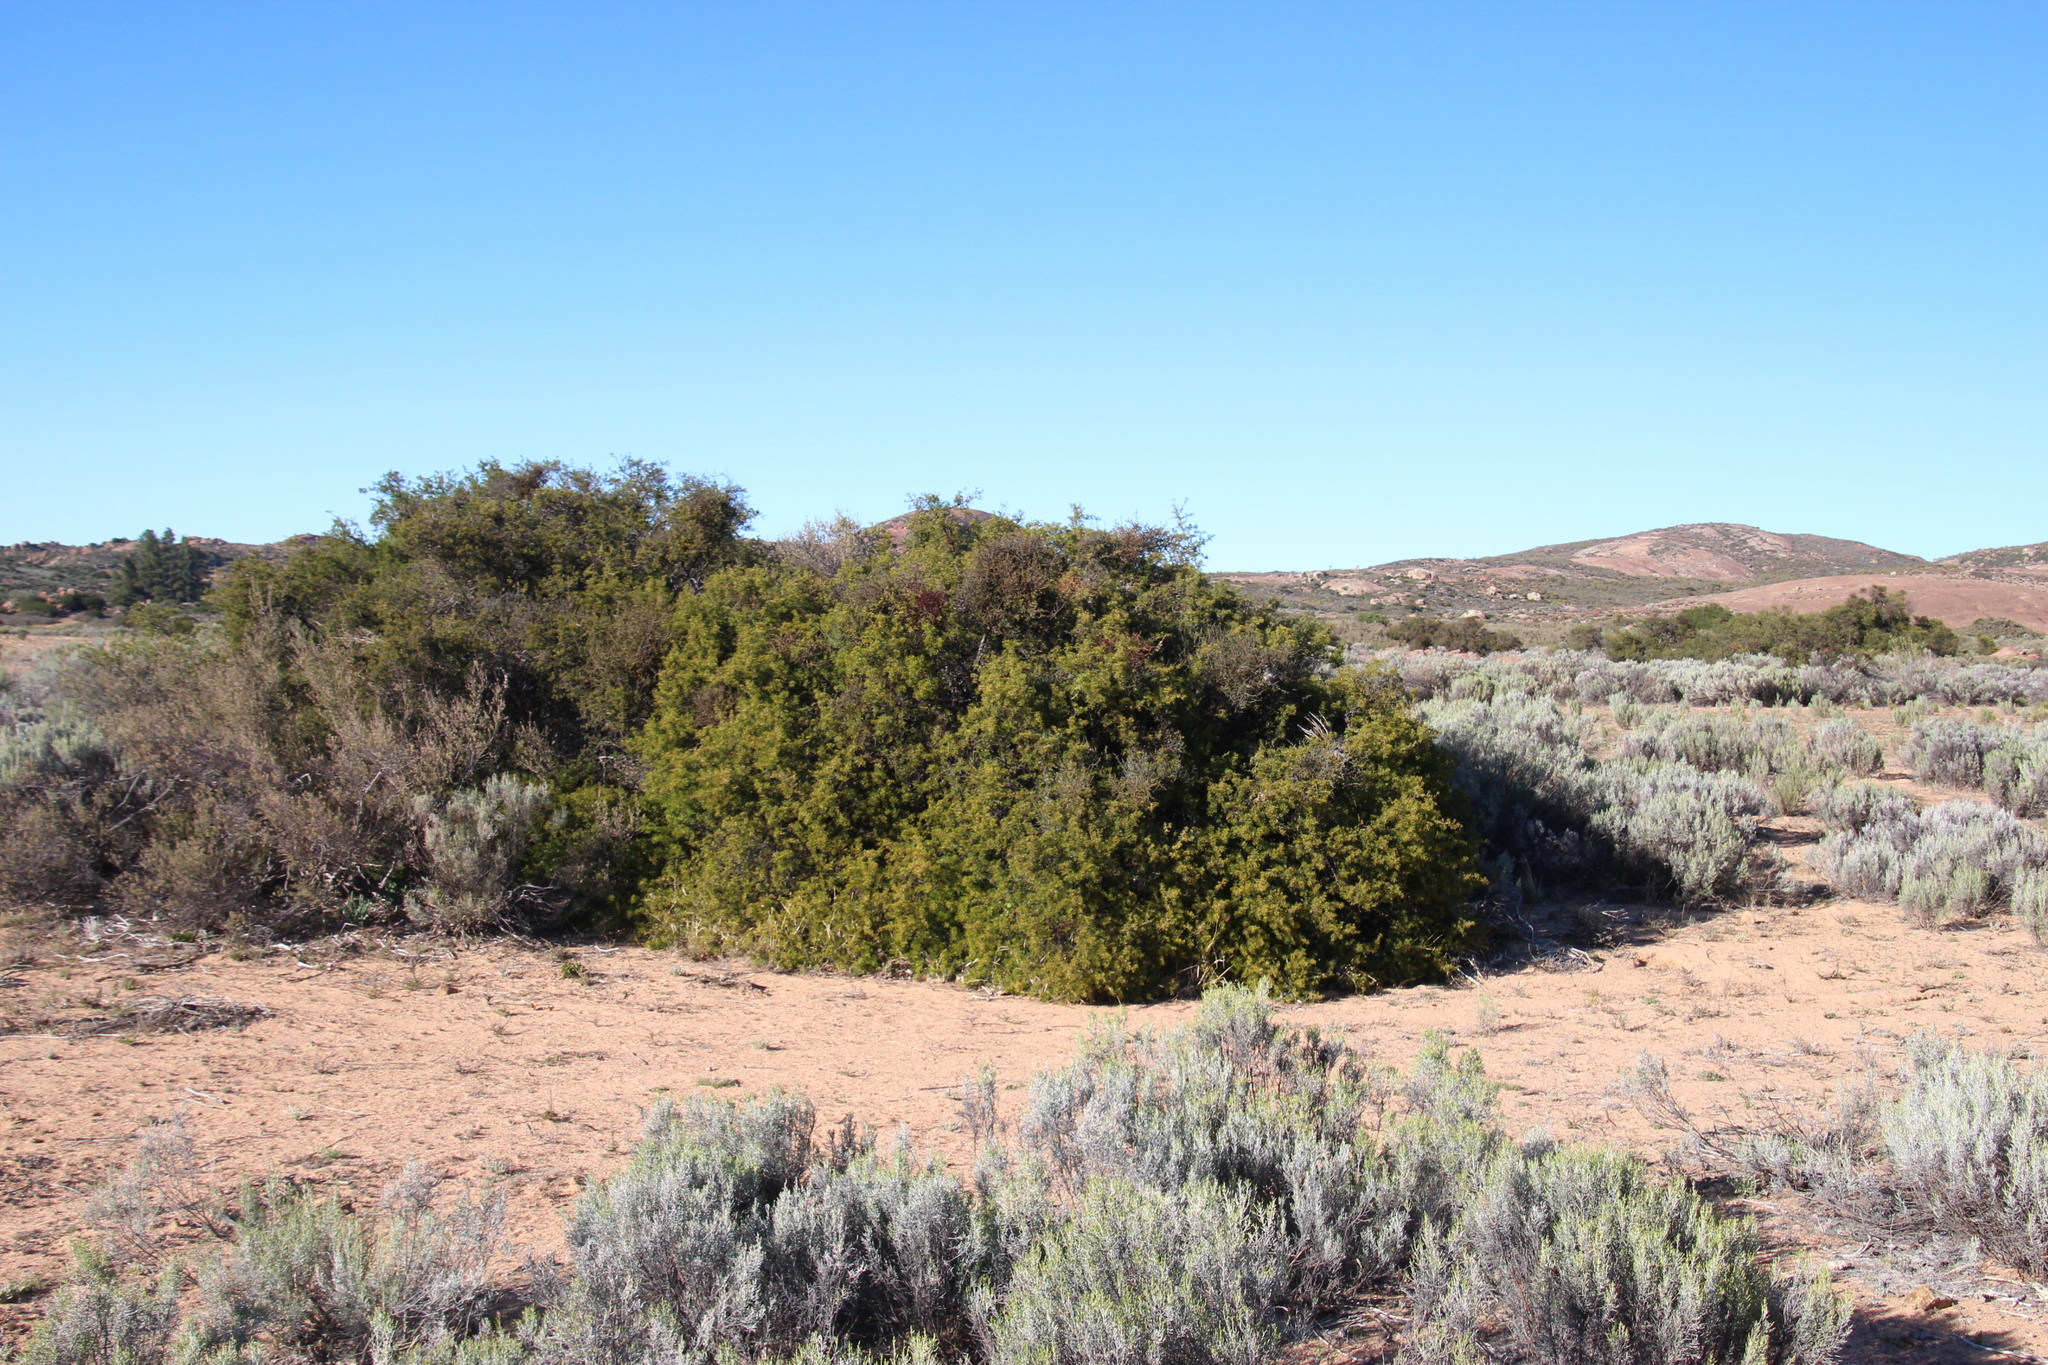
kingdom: Plantae
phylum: Tracheophyta
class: Magnoliopsida
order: Sapindales
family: Anacardiaceae
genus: Searsia
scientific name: Searsia undulata
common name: Namaqua kunibush
